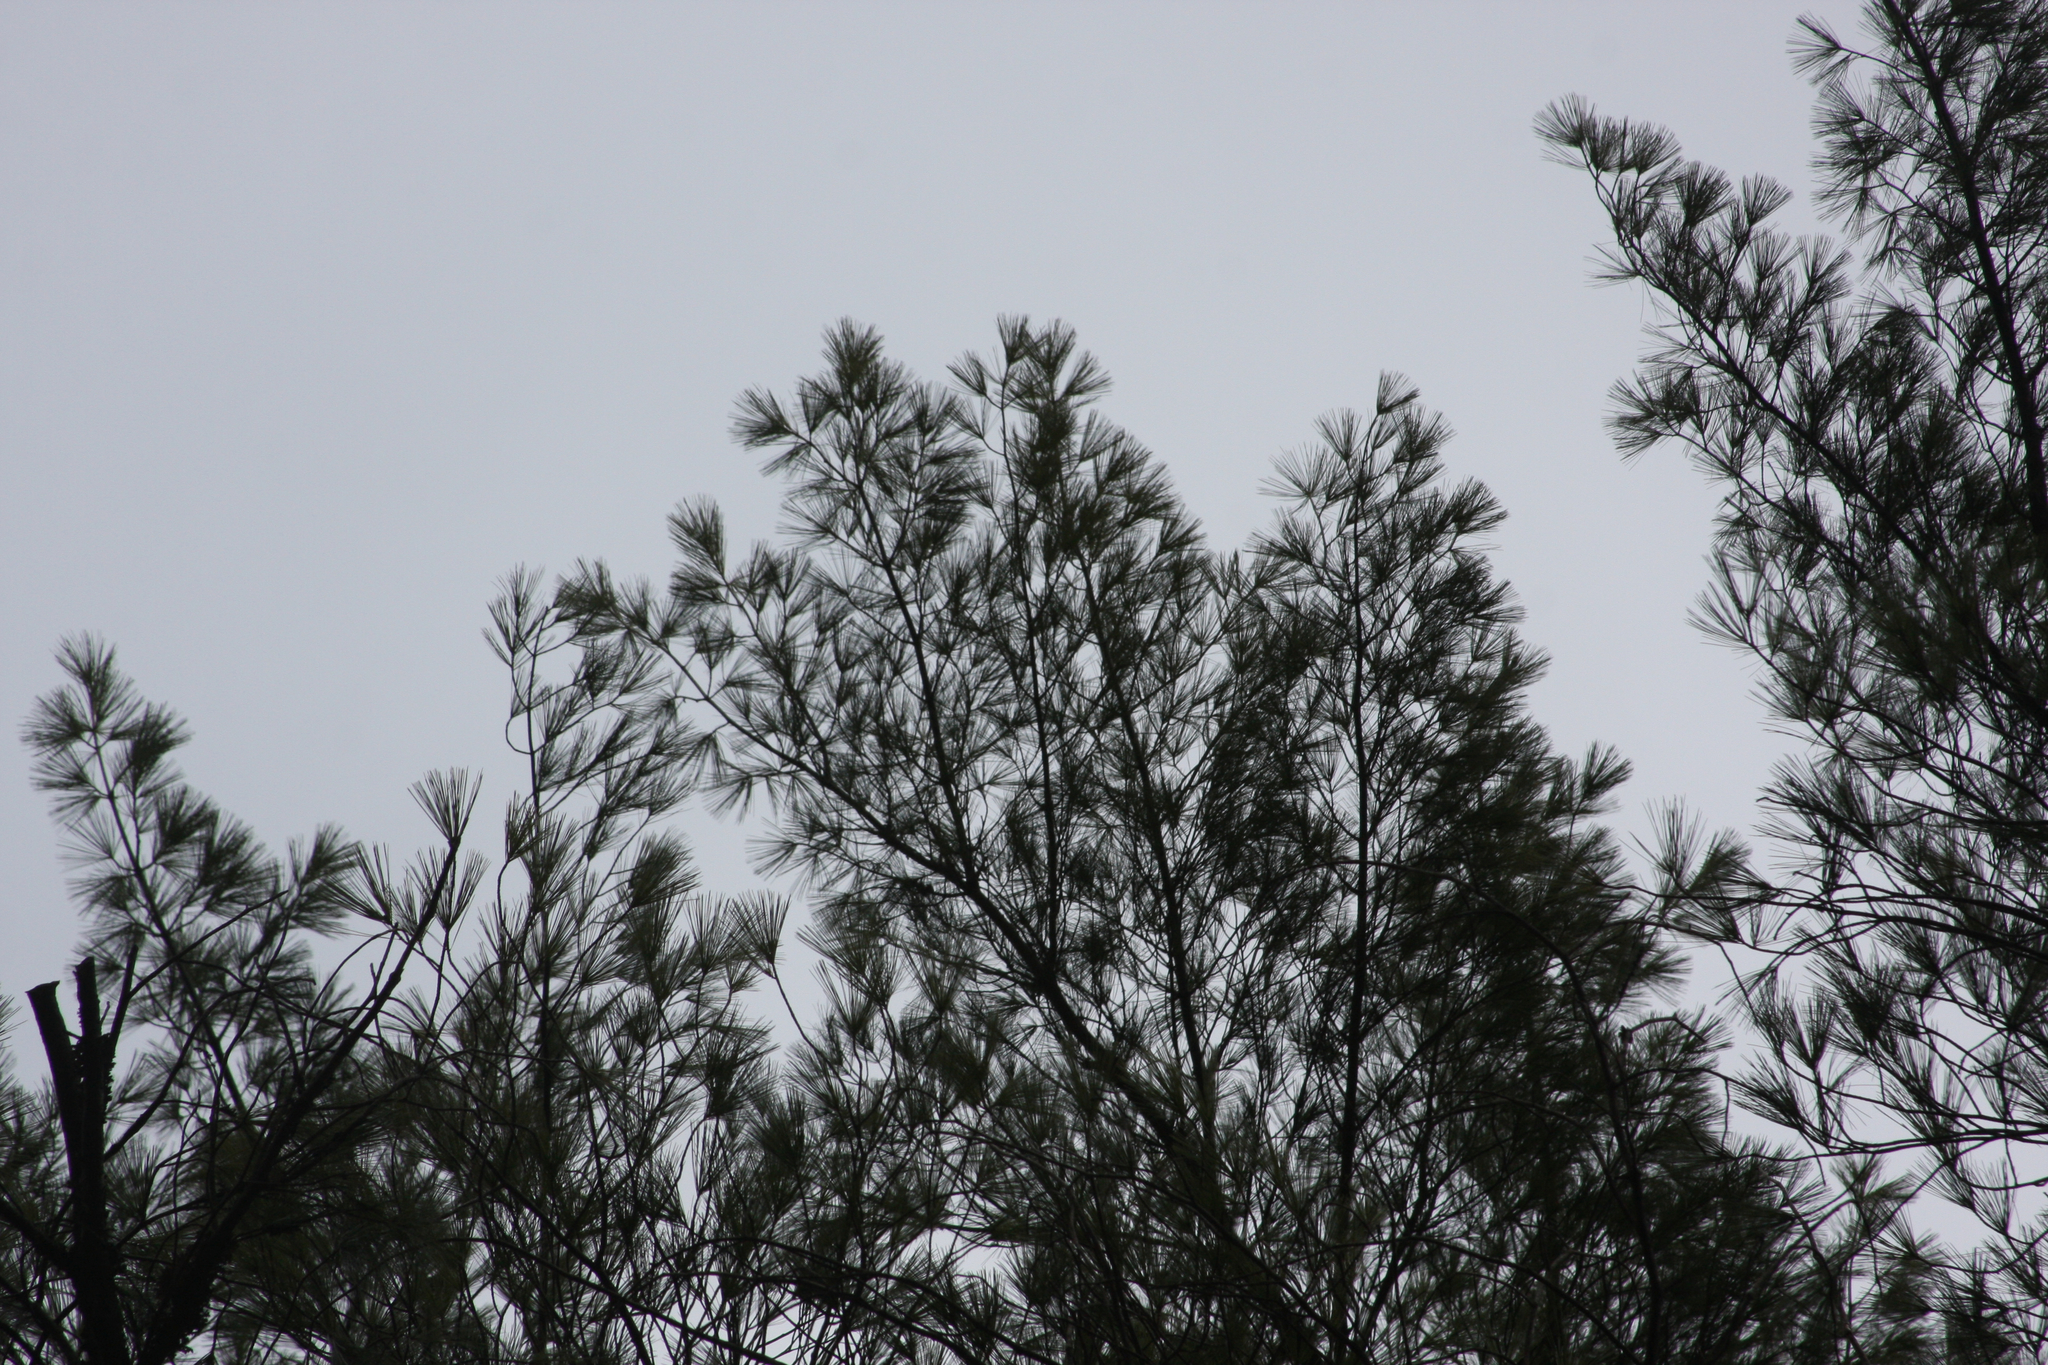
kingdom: Plantae
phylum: Tracheophyta
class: Pinopsida
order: Pinales
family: Pinaceae
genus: Pinus
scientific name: Pinus strobus
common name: Weymouth pine
